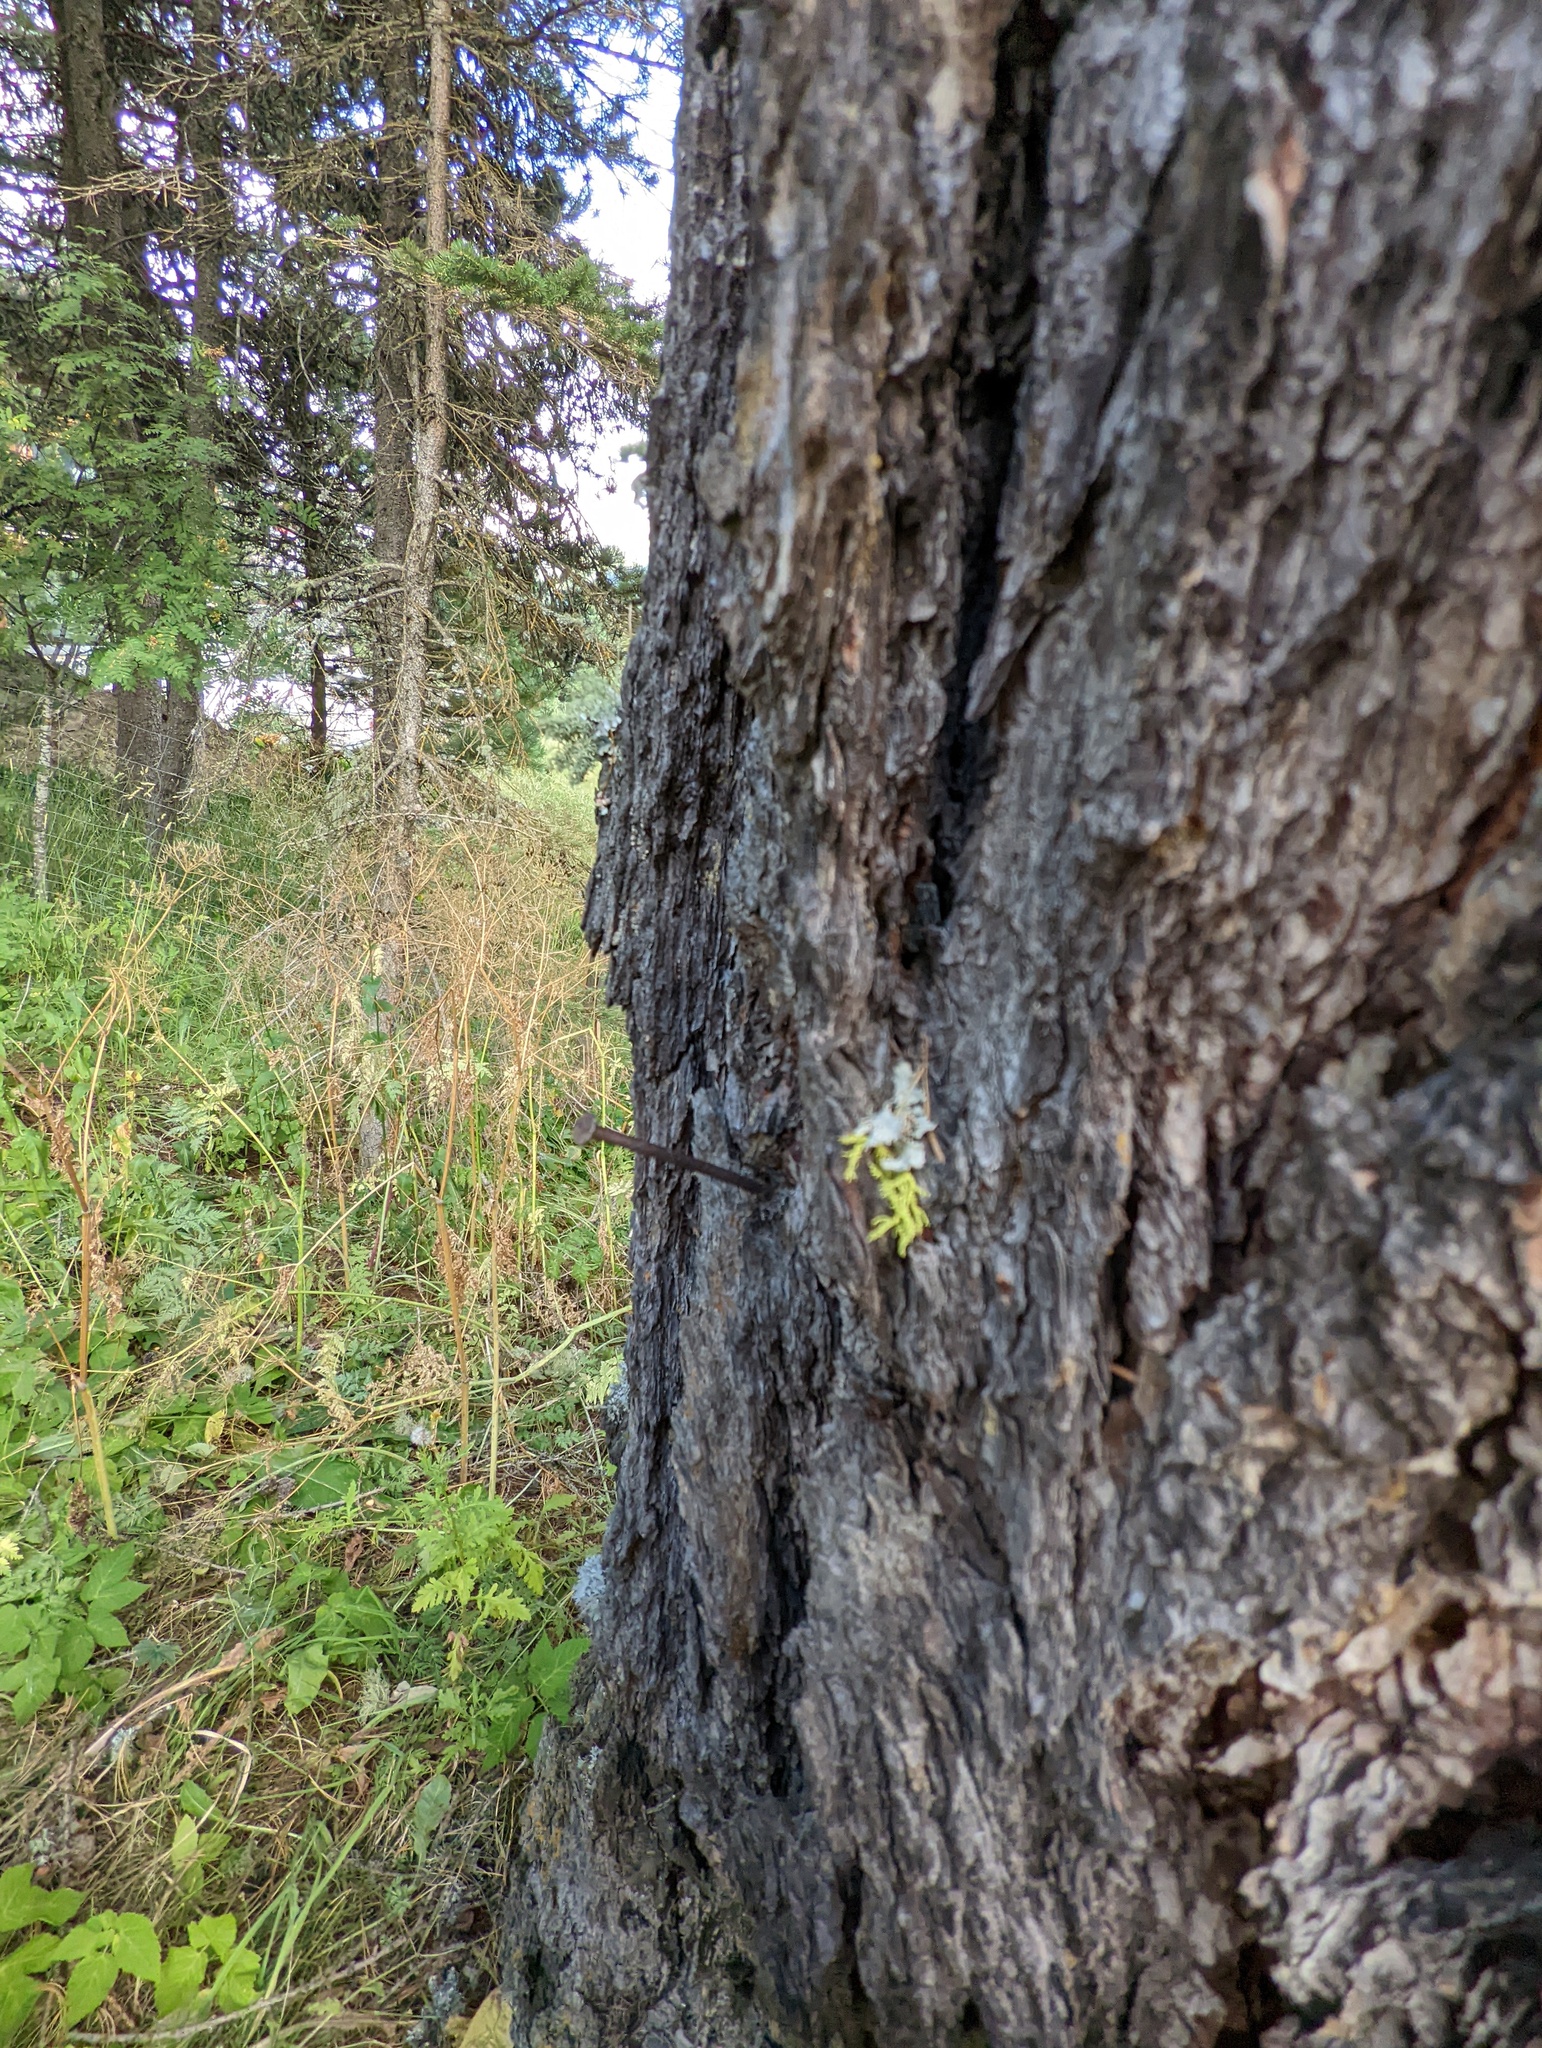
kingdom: Fungi
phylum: Ascomycota
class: Lecanoromycetes
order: Lecanorales
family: Parmeliaceae
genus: Letharia
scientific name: Letharia vulpina
